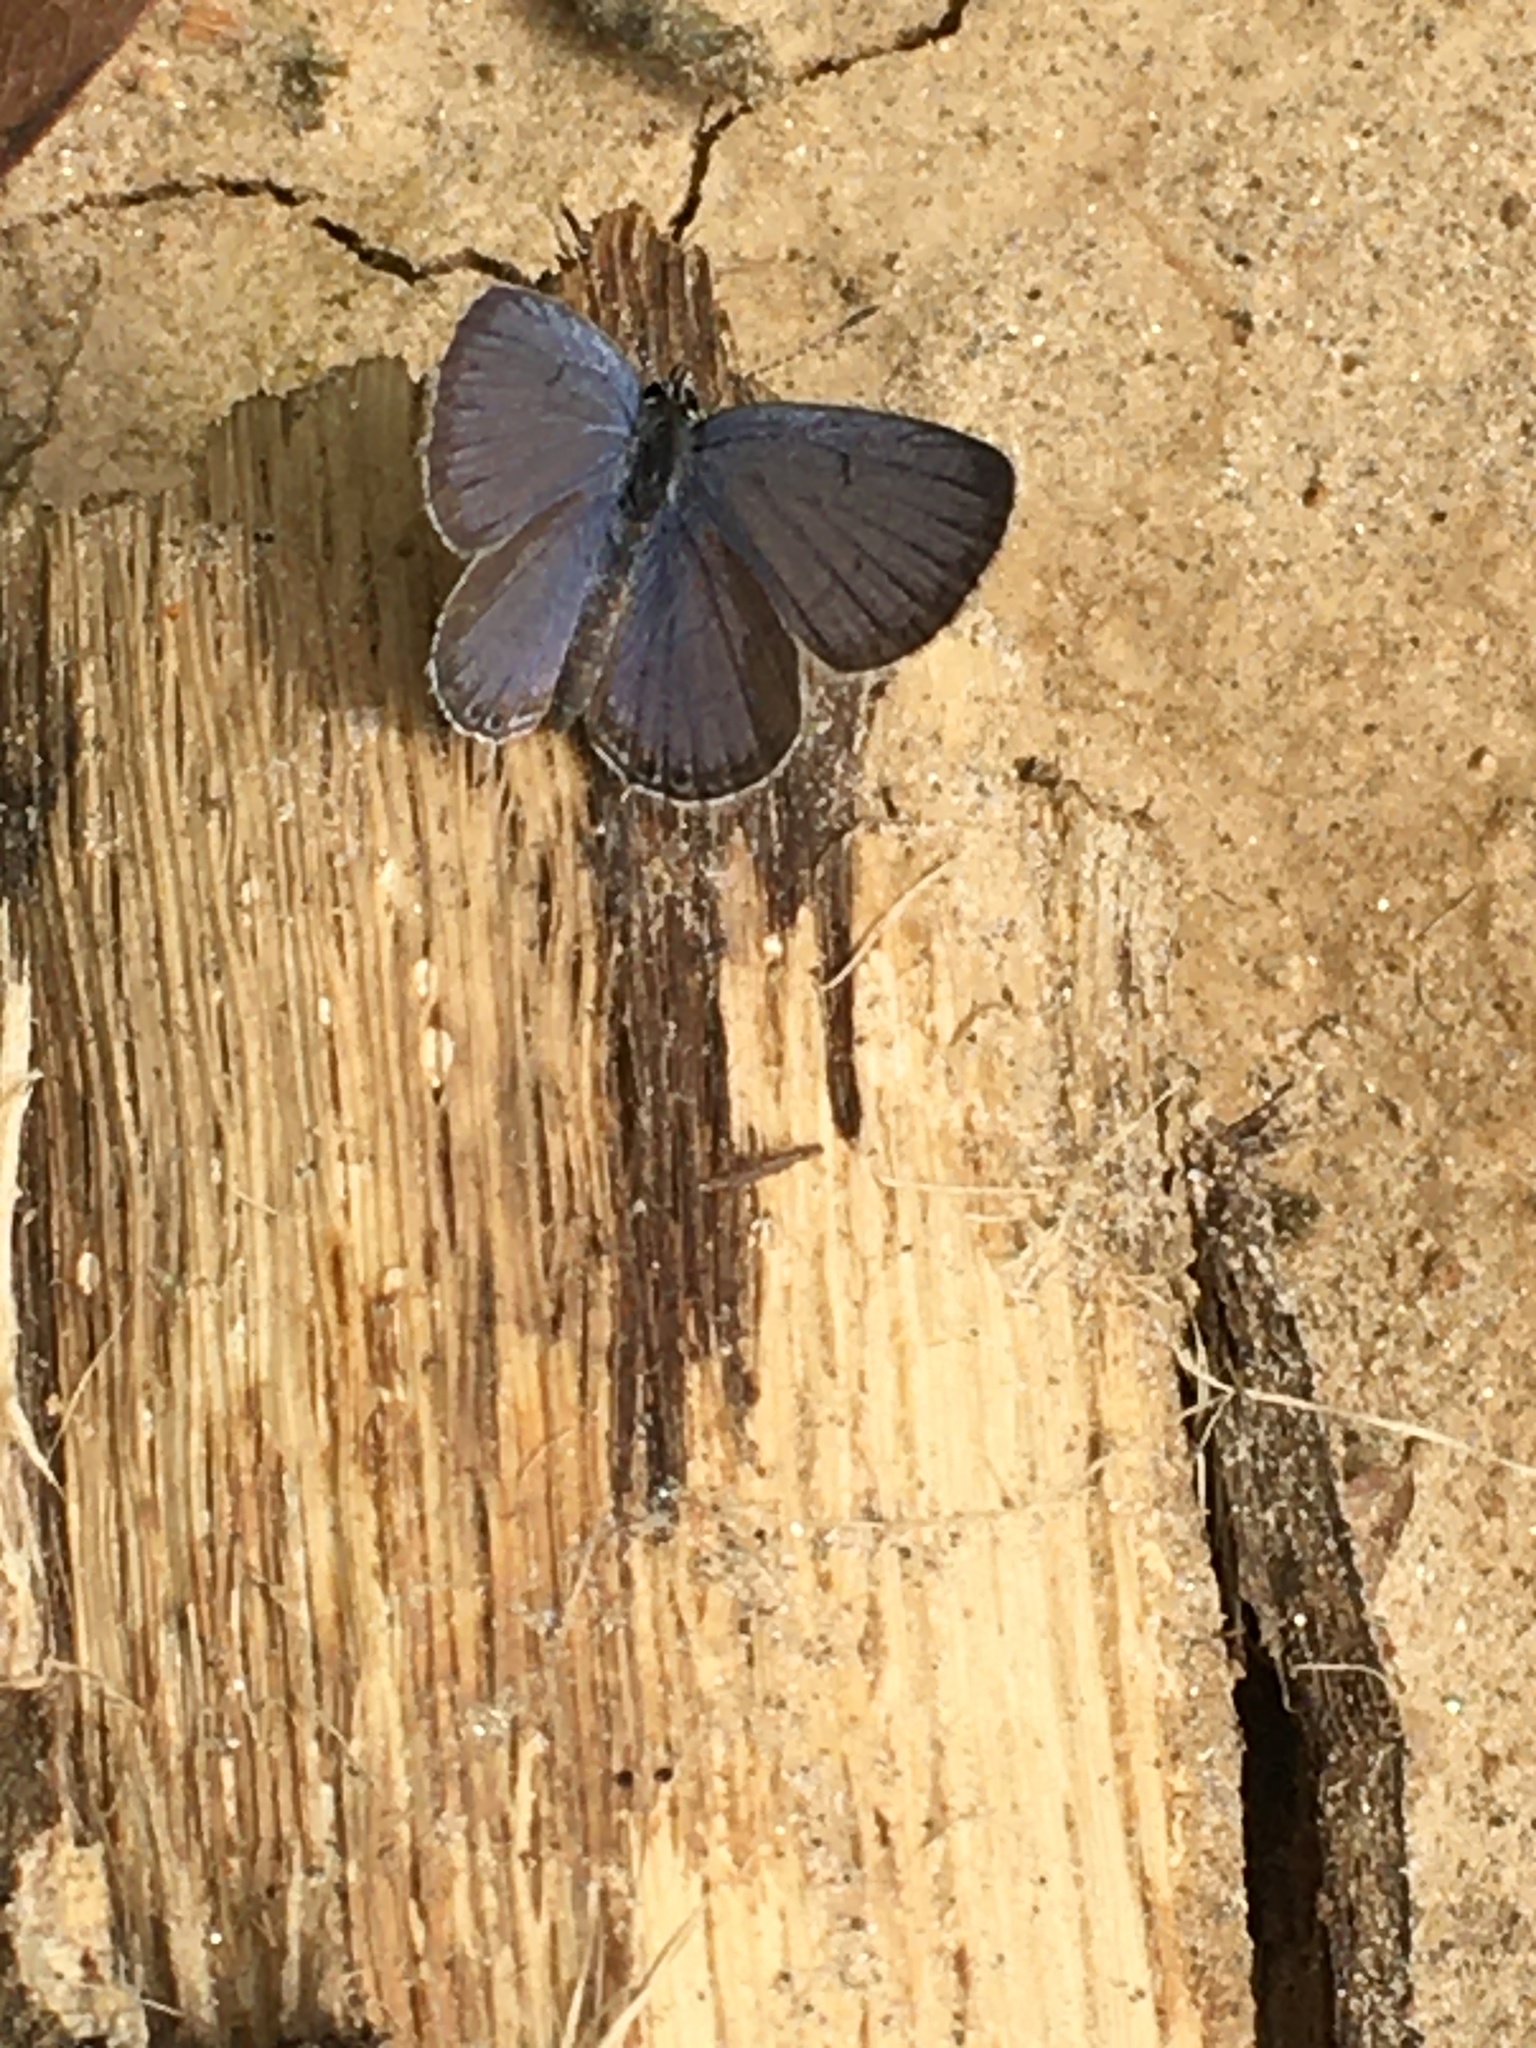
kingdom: Animalia
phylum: Arthropoda
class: Insecta
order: Lepidoptera
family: Lycaenidae
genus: Elkalyce
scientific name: Elkalyce comyntas
